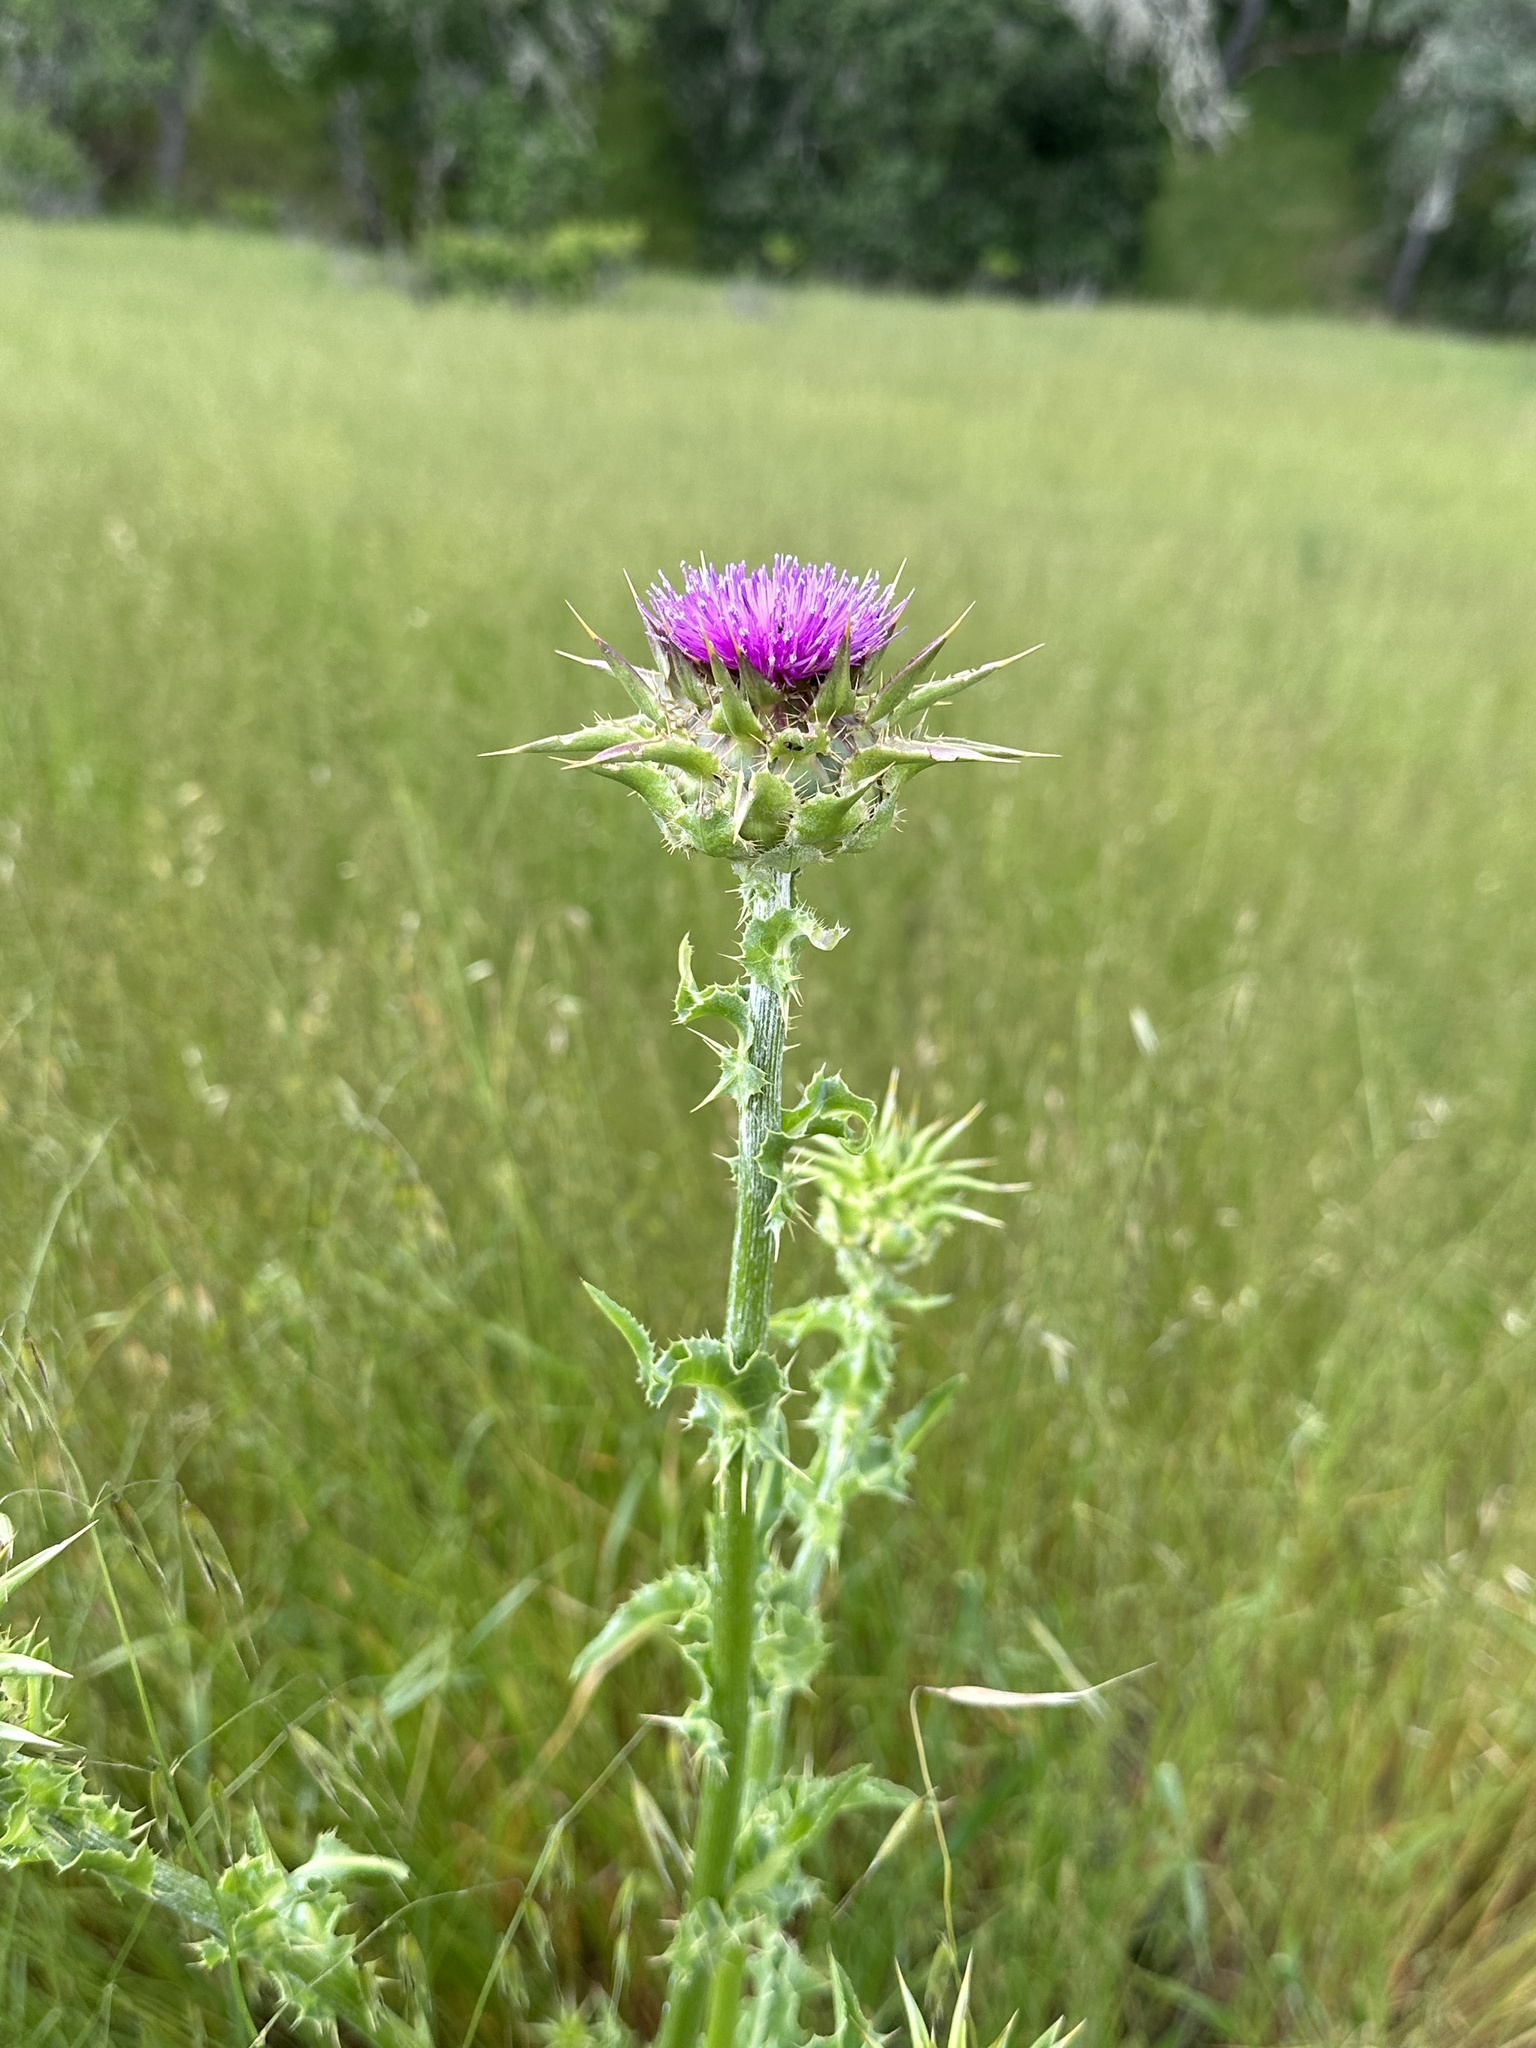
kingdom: Plantae
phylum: Tracheophyta
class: Magnoliopsida
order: Asterales
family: Asteraceae
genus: Silybum
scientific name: Silybum marianum
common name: Milk thistle
